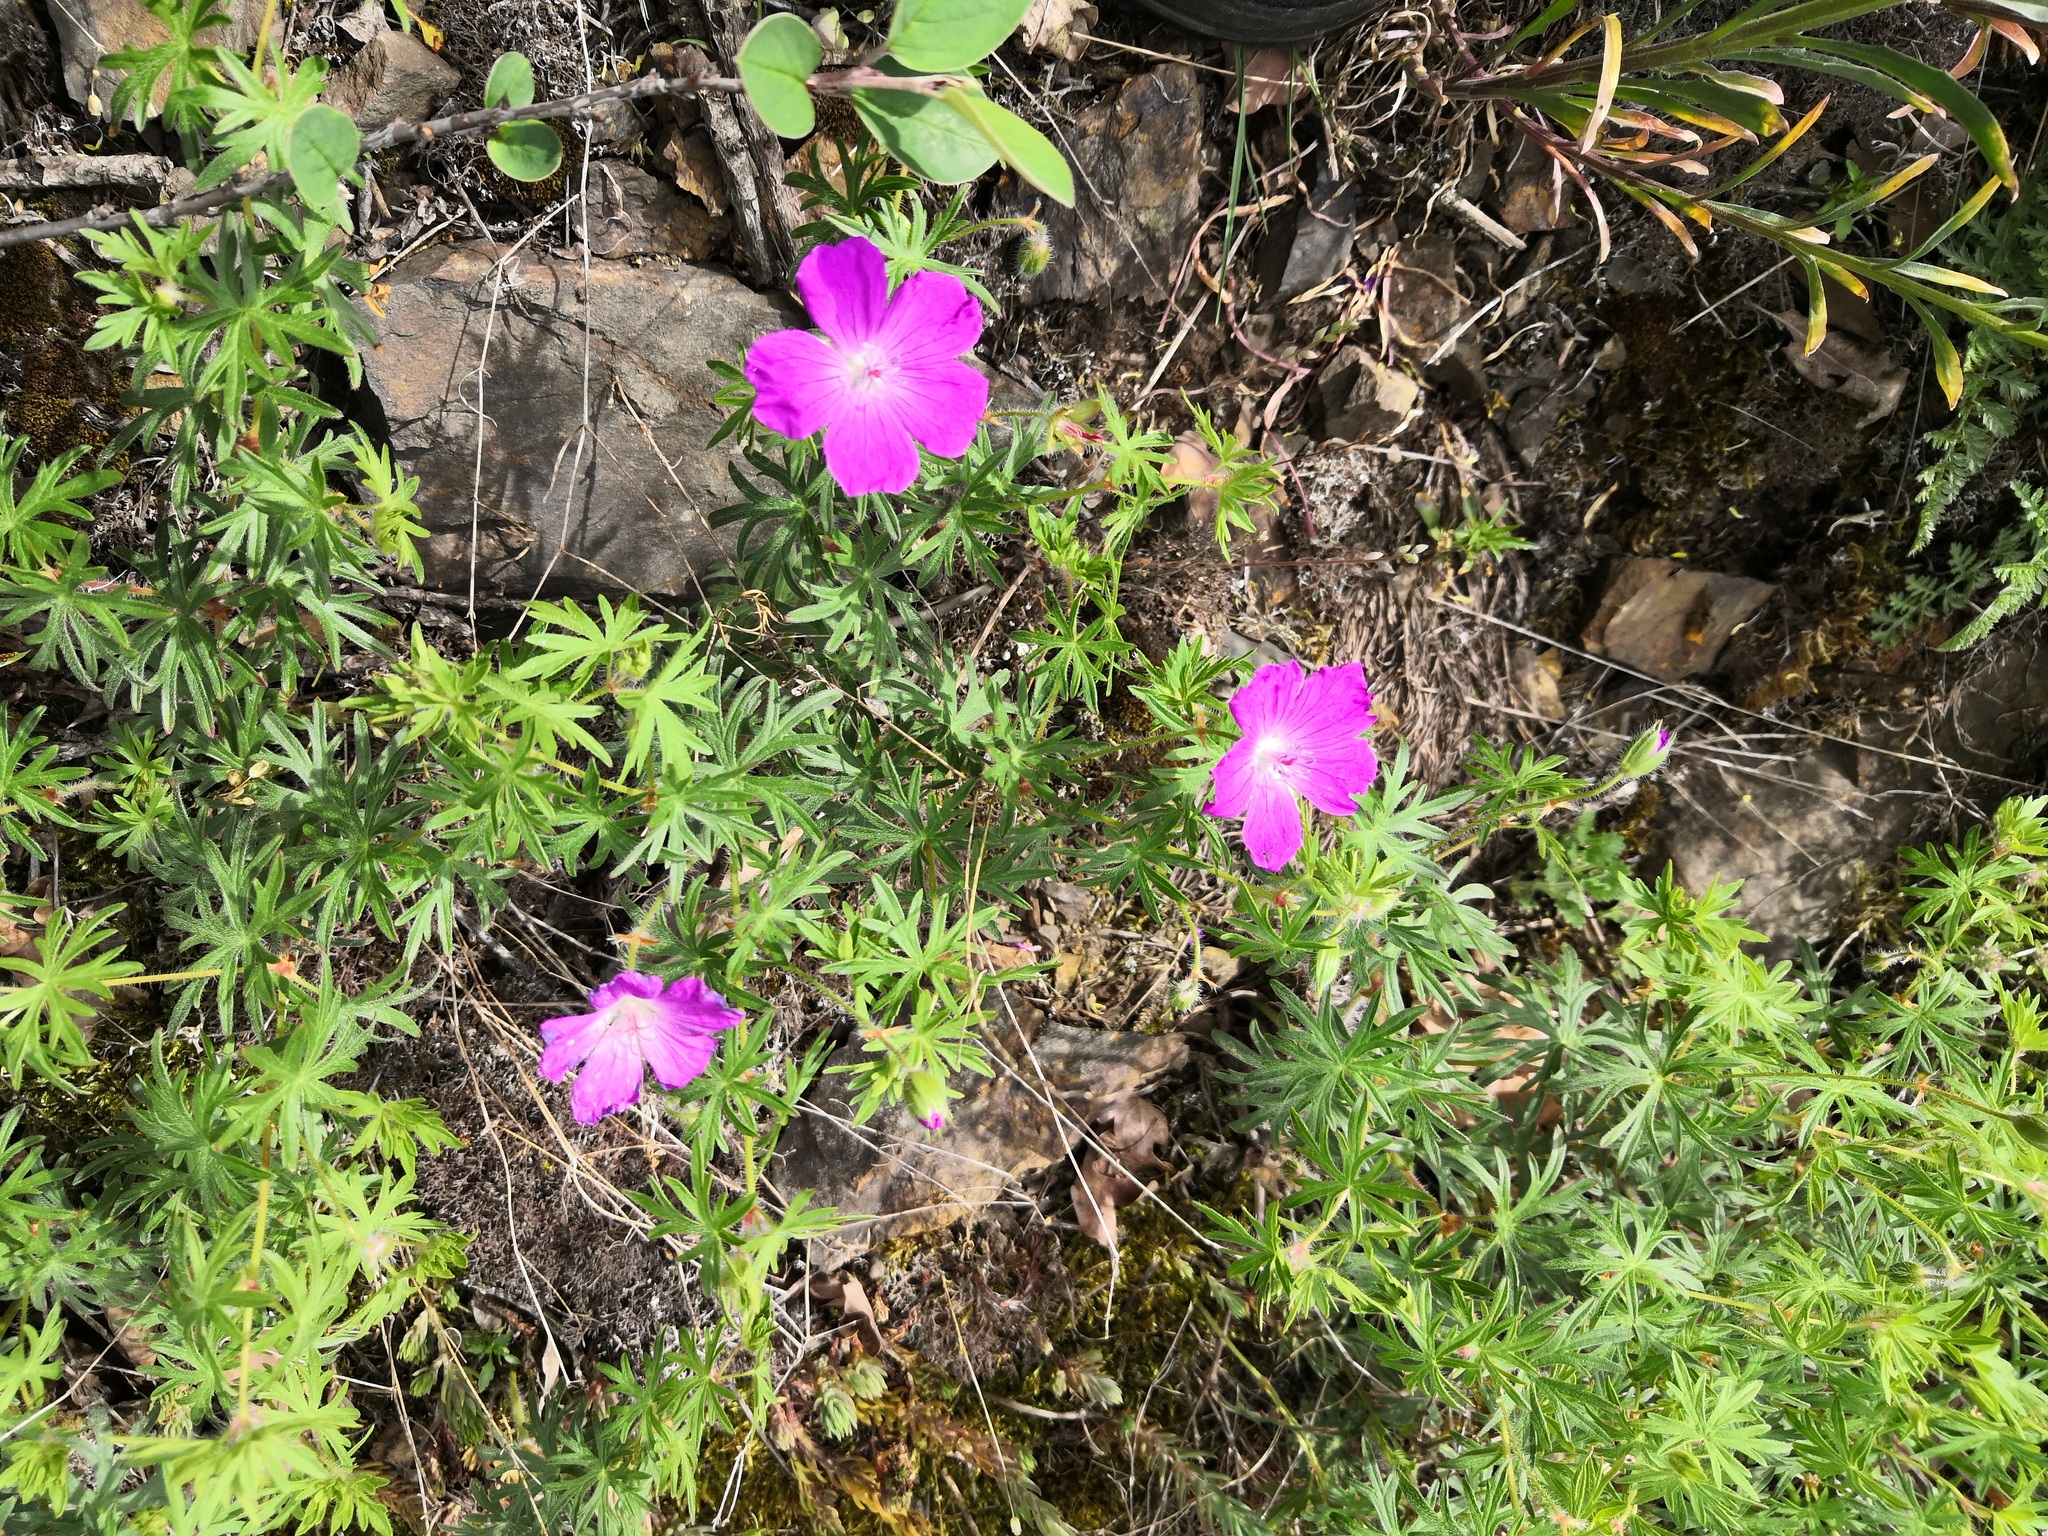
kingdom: Plantae
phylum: Tracheophyta
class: Magnoliopsida
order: Geraniales
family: Geraniaceae
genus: Geranium
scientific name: Geranium sanguineum
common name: Bloody crane's-bill
